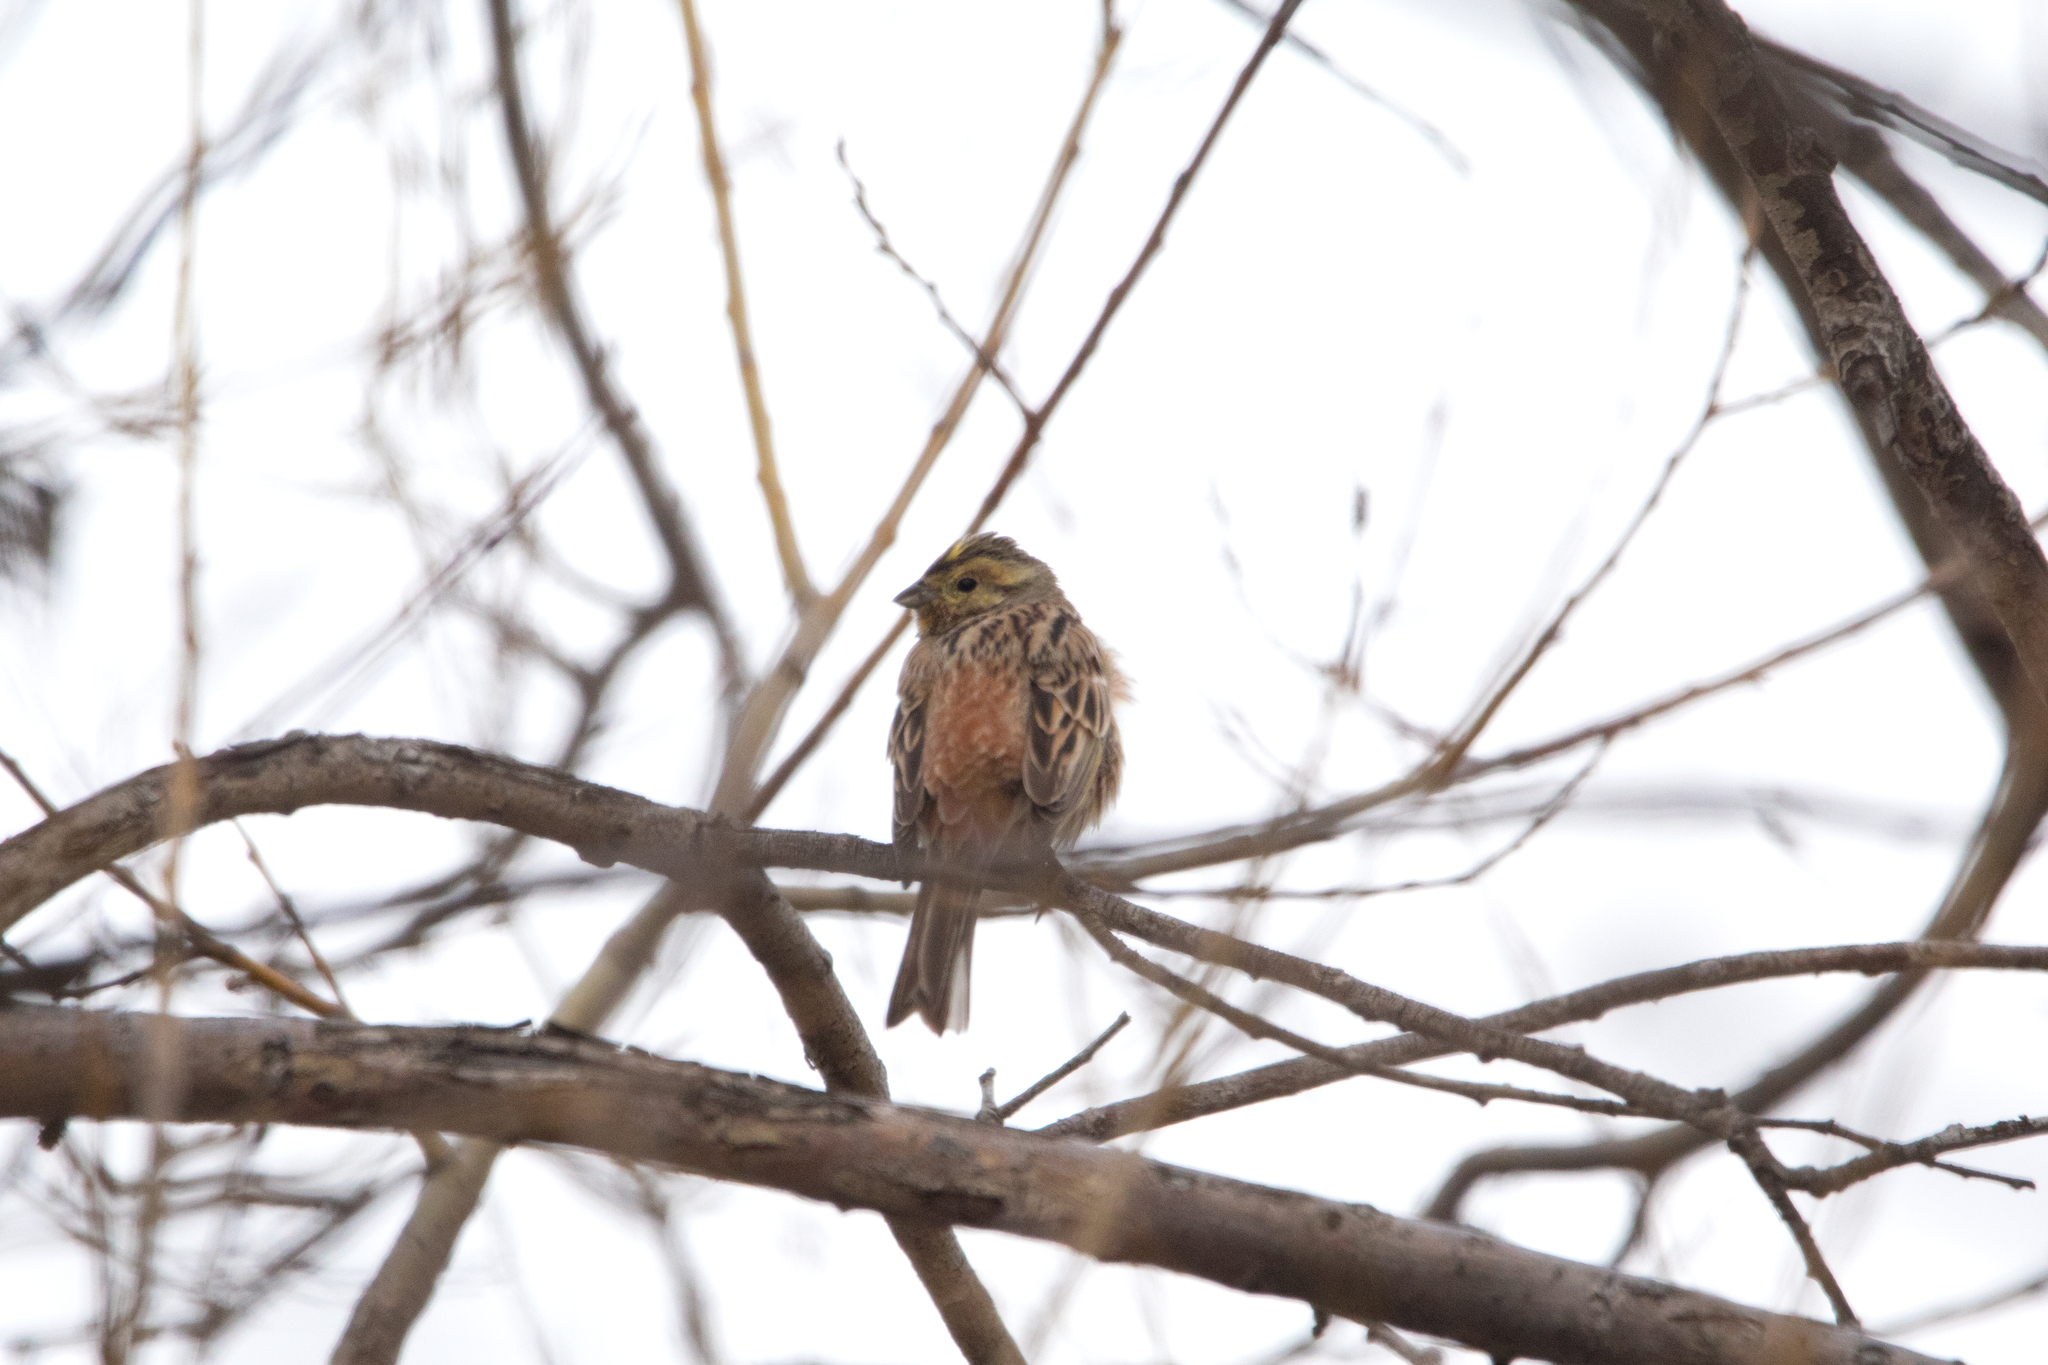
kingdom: Animalia
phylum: Chordata
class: Aves
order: Passeriformes
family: Emberizidae
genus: Emberiza
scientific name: Emberiza citrinella
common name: Yellowhammer
